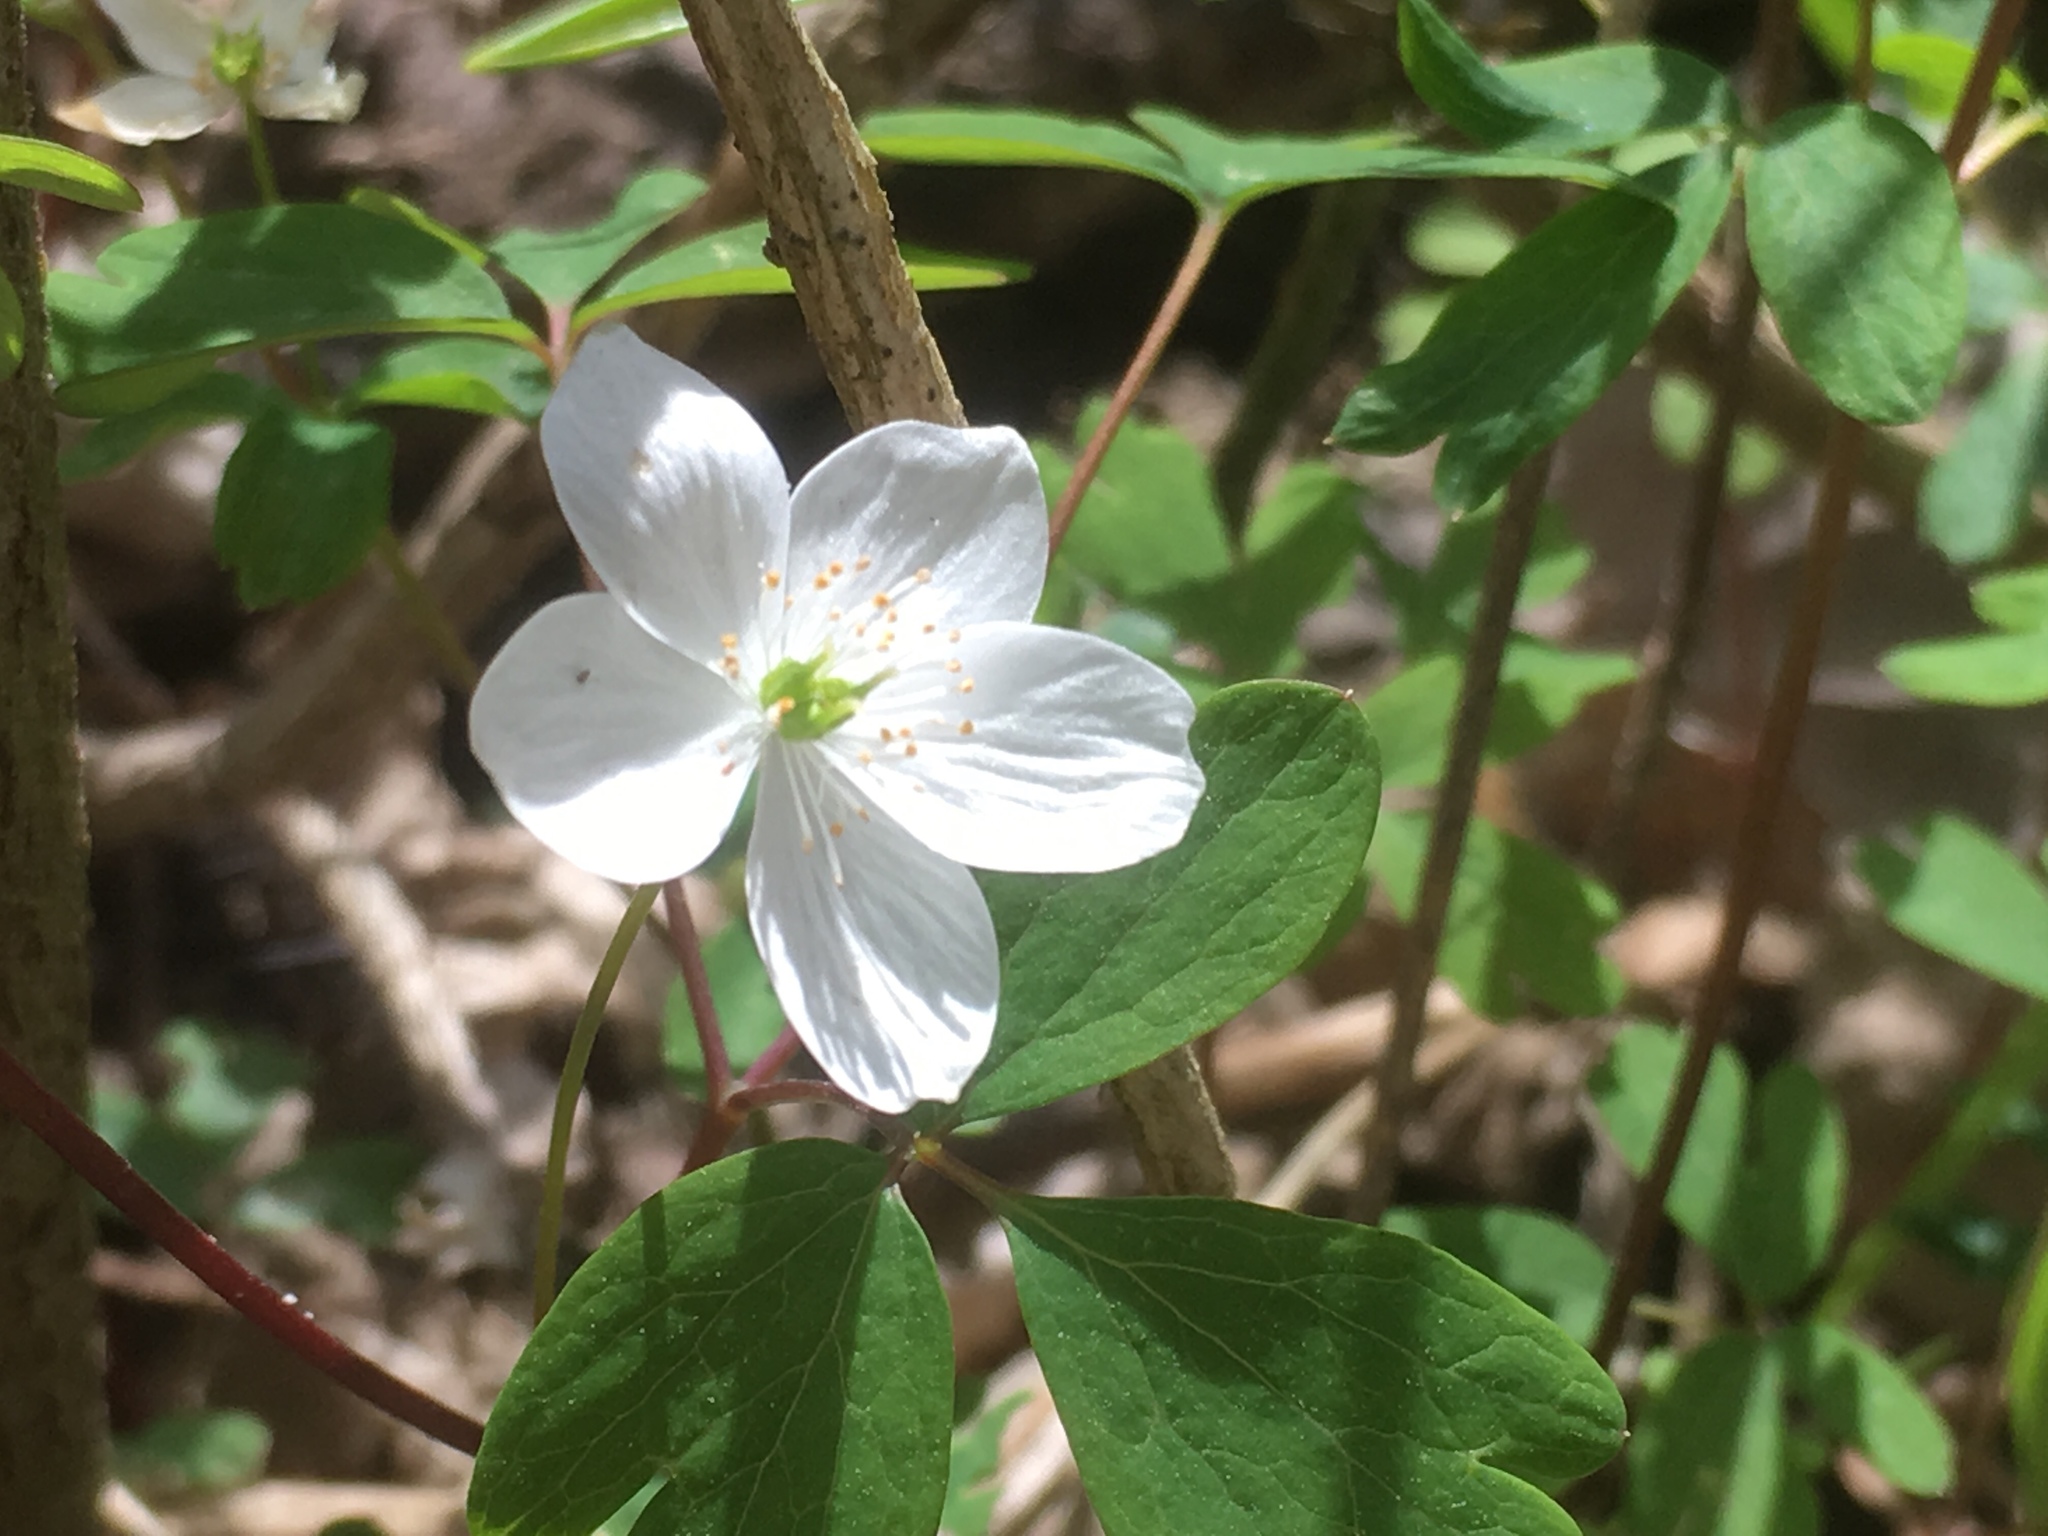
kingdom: Plantae
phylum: Tracheophyta
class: Magnoliopsida
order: Ranunculales
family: Ranunculaceae
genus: Enemion
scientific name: Enemion biternatum
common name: Eastern false rue-anemone
